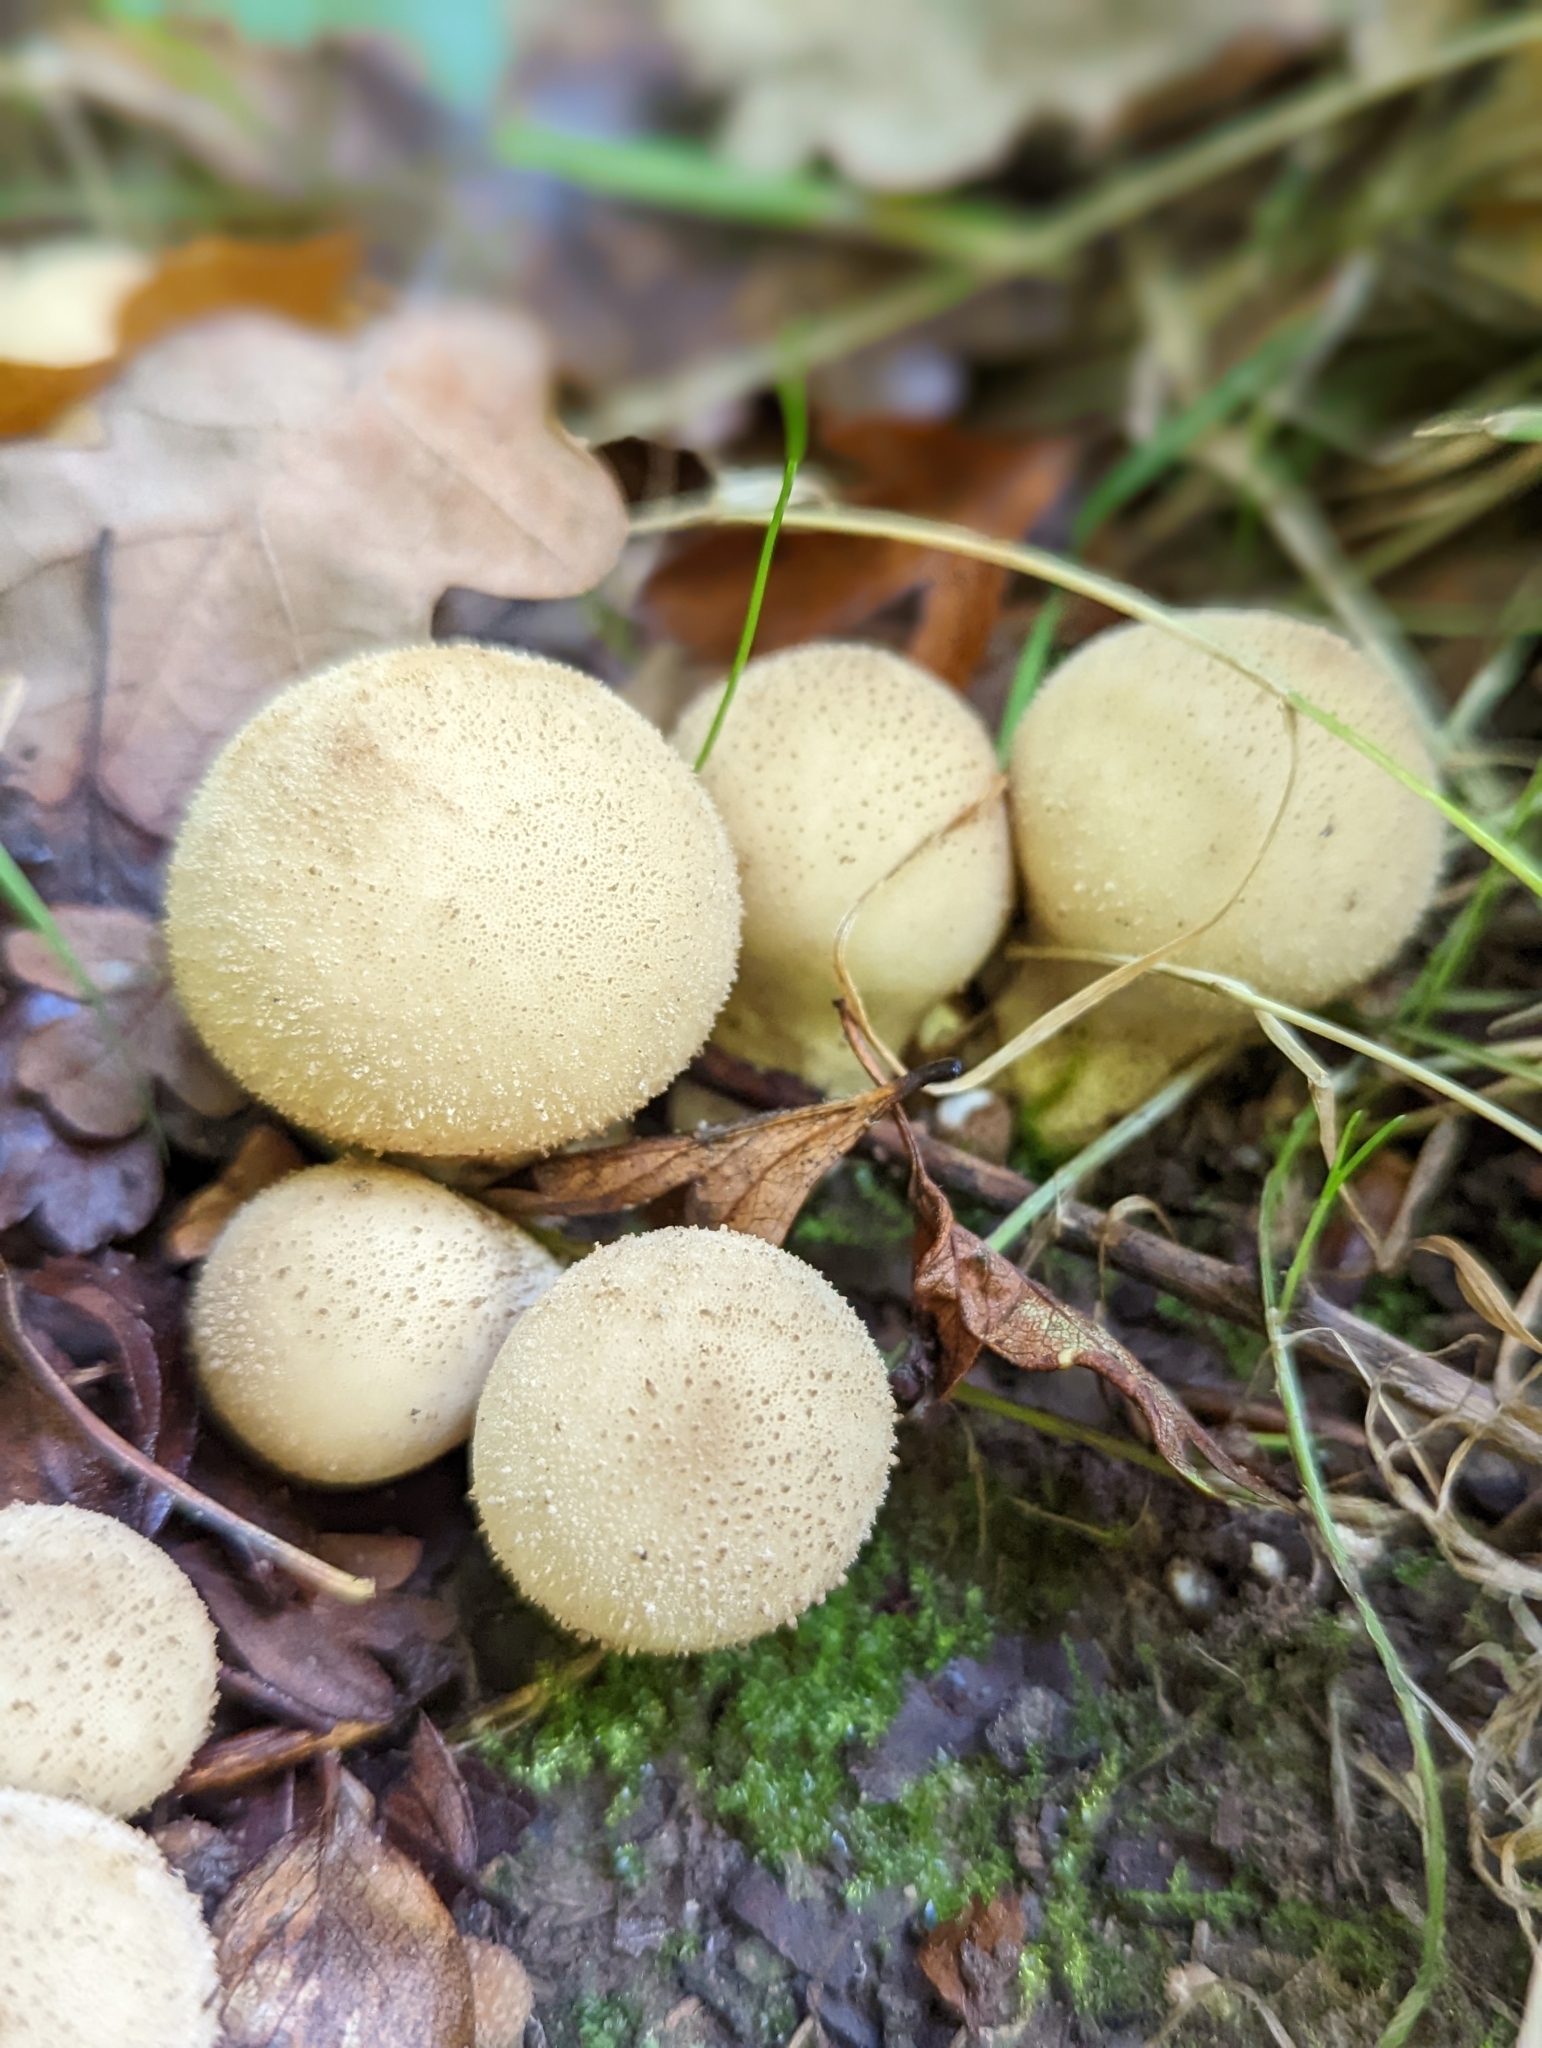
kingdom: Fungi
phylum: Basidiomycota
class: Agaricomycetes
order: Agaricales
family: Lycoperdaceae
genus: Apioperdon
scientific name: Apioperdon pyriforme
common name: Pear-shaped puffball
